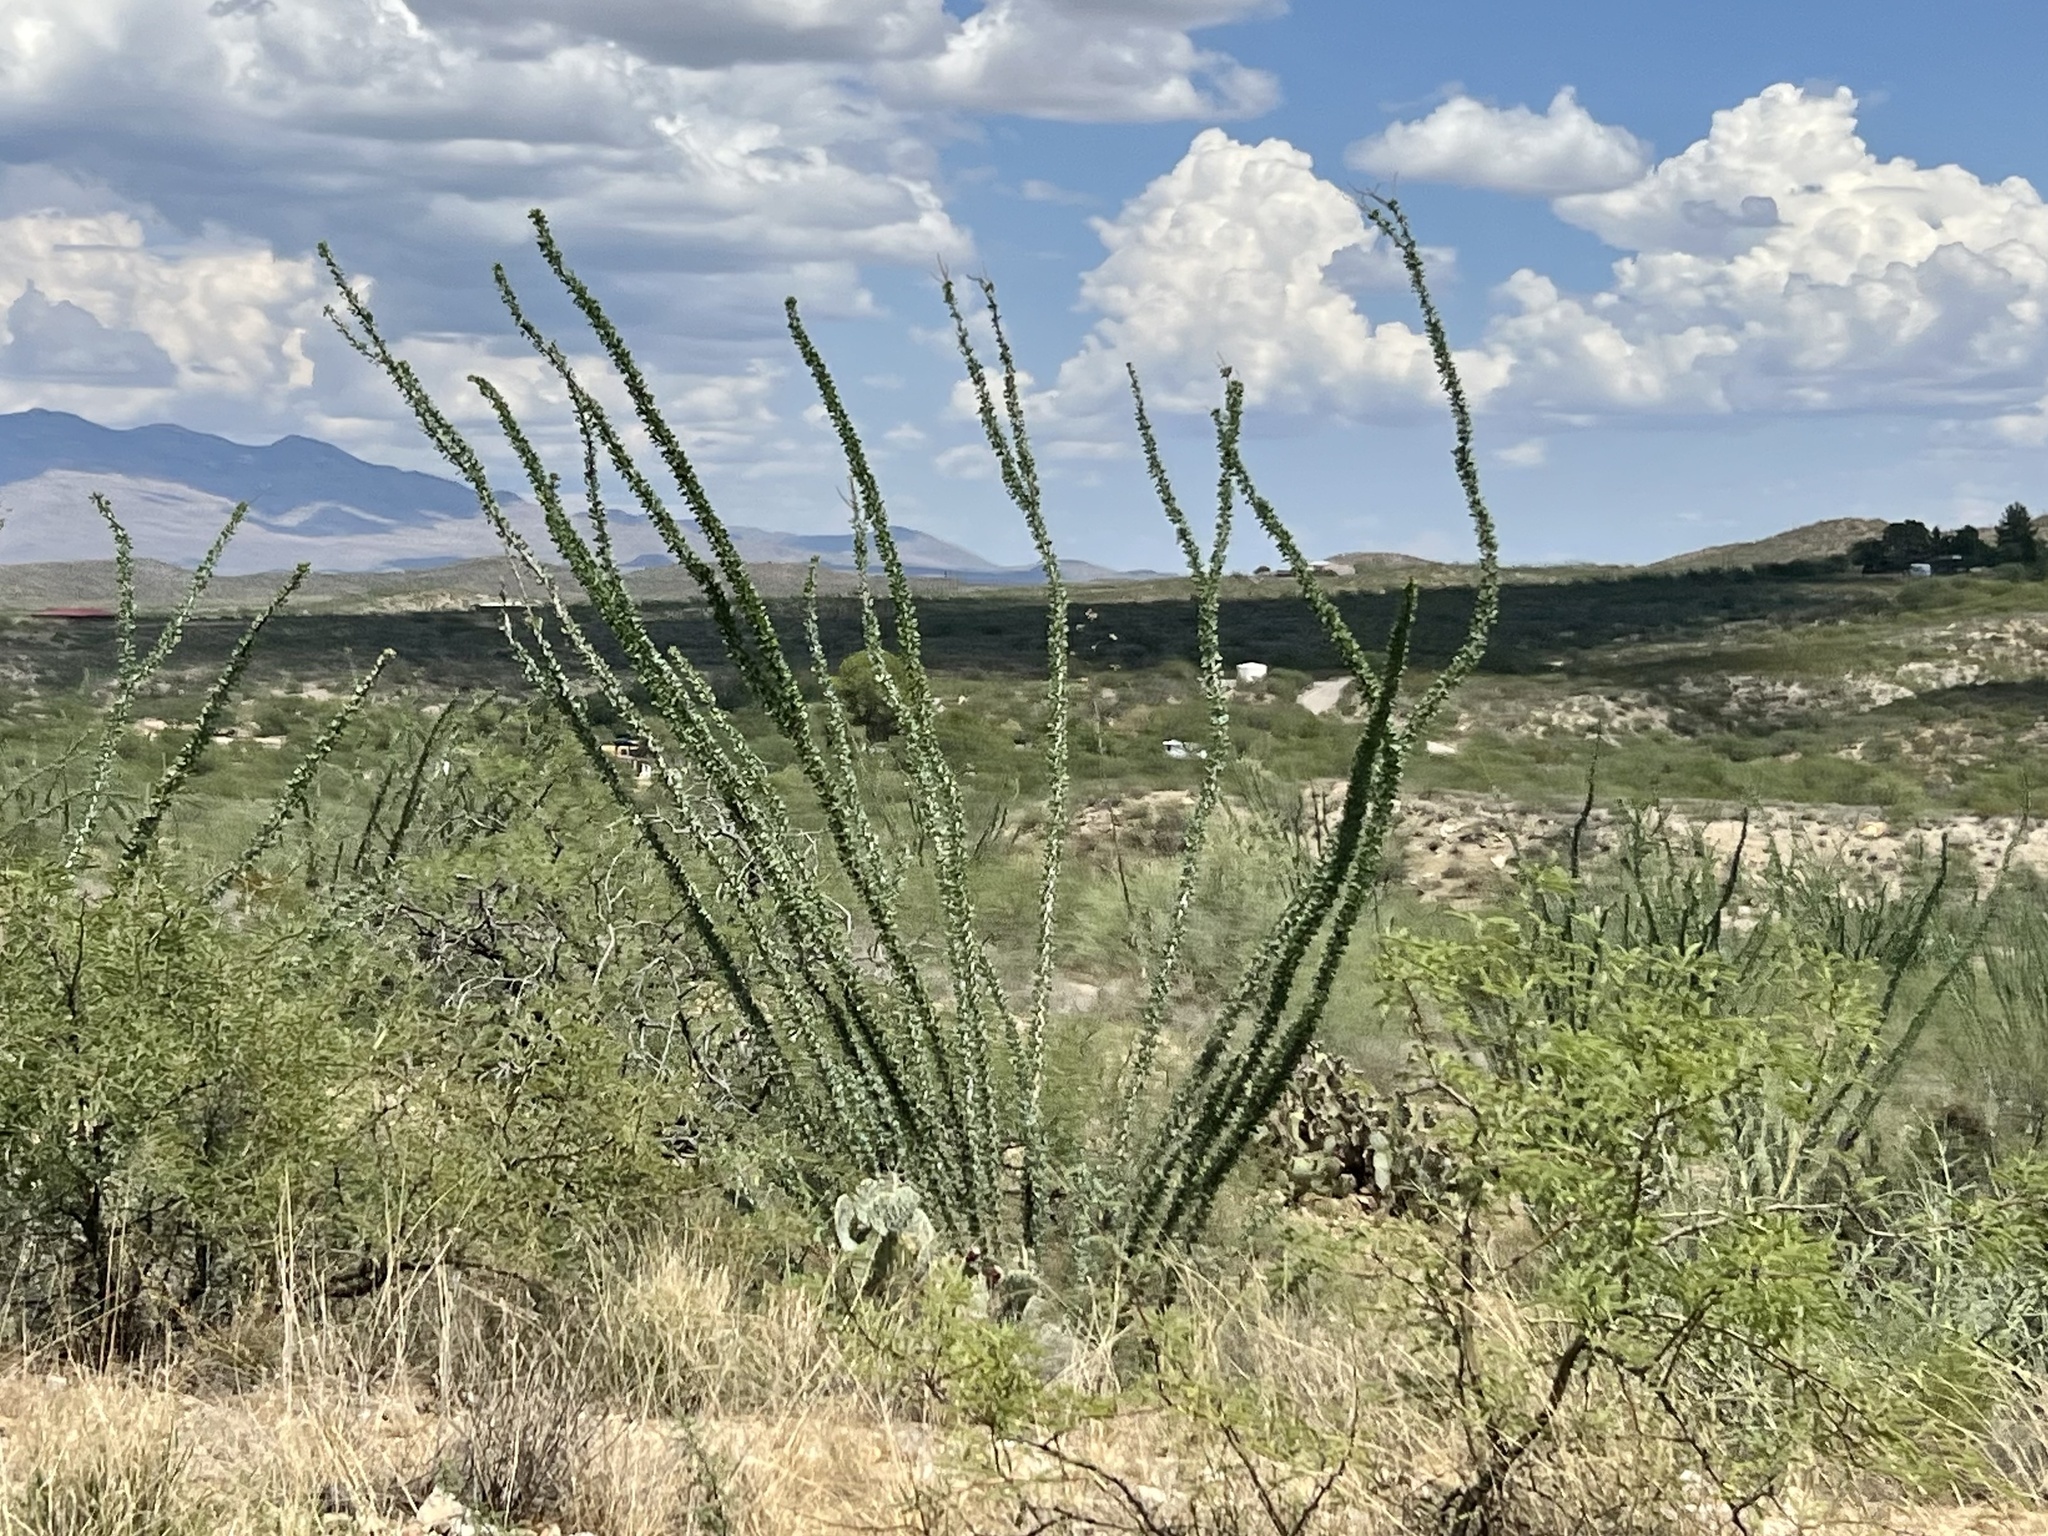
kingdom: Plantae
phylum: Tracheophyta
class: Magnoliopsida
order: Ericales
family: Fouquieriaceae
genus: Fouquieria
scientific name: Fouquieria splendens
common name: Vine-cactus
